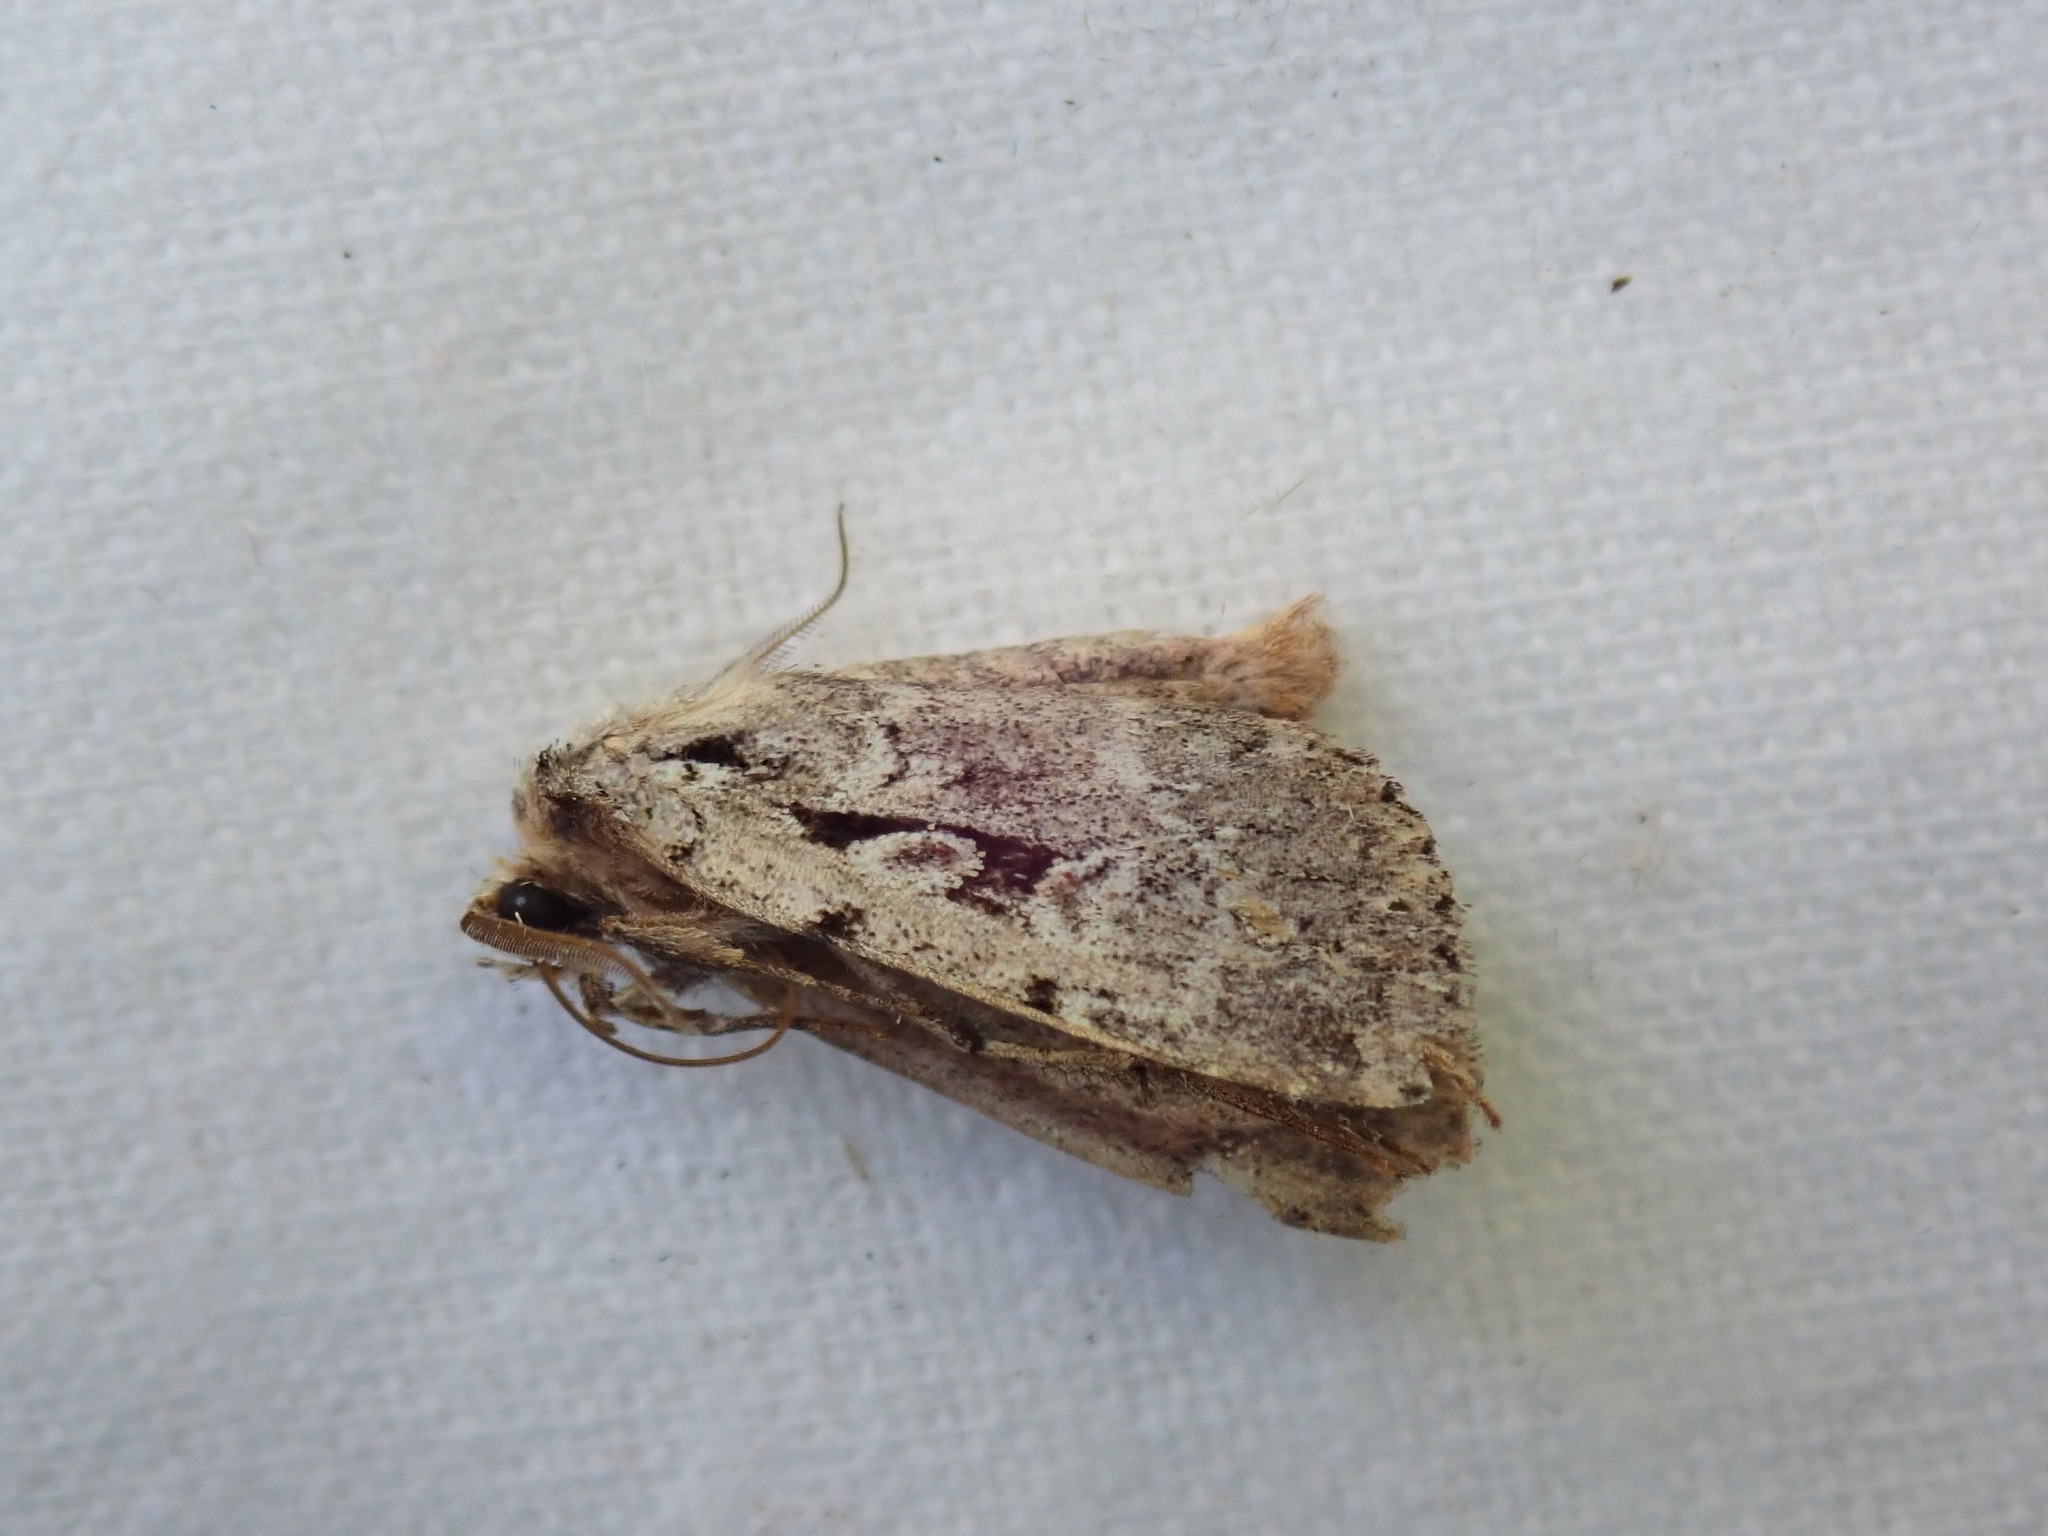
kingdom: Animalia
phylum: Arthropoda
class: Insecta
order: Lepidoptera
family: Noctuidae
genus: Xestia
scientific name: Xestia normaniana
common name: Norman's dart moth
